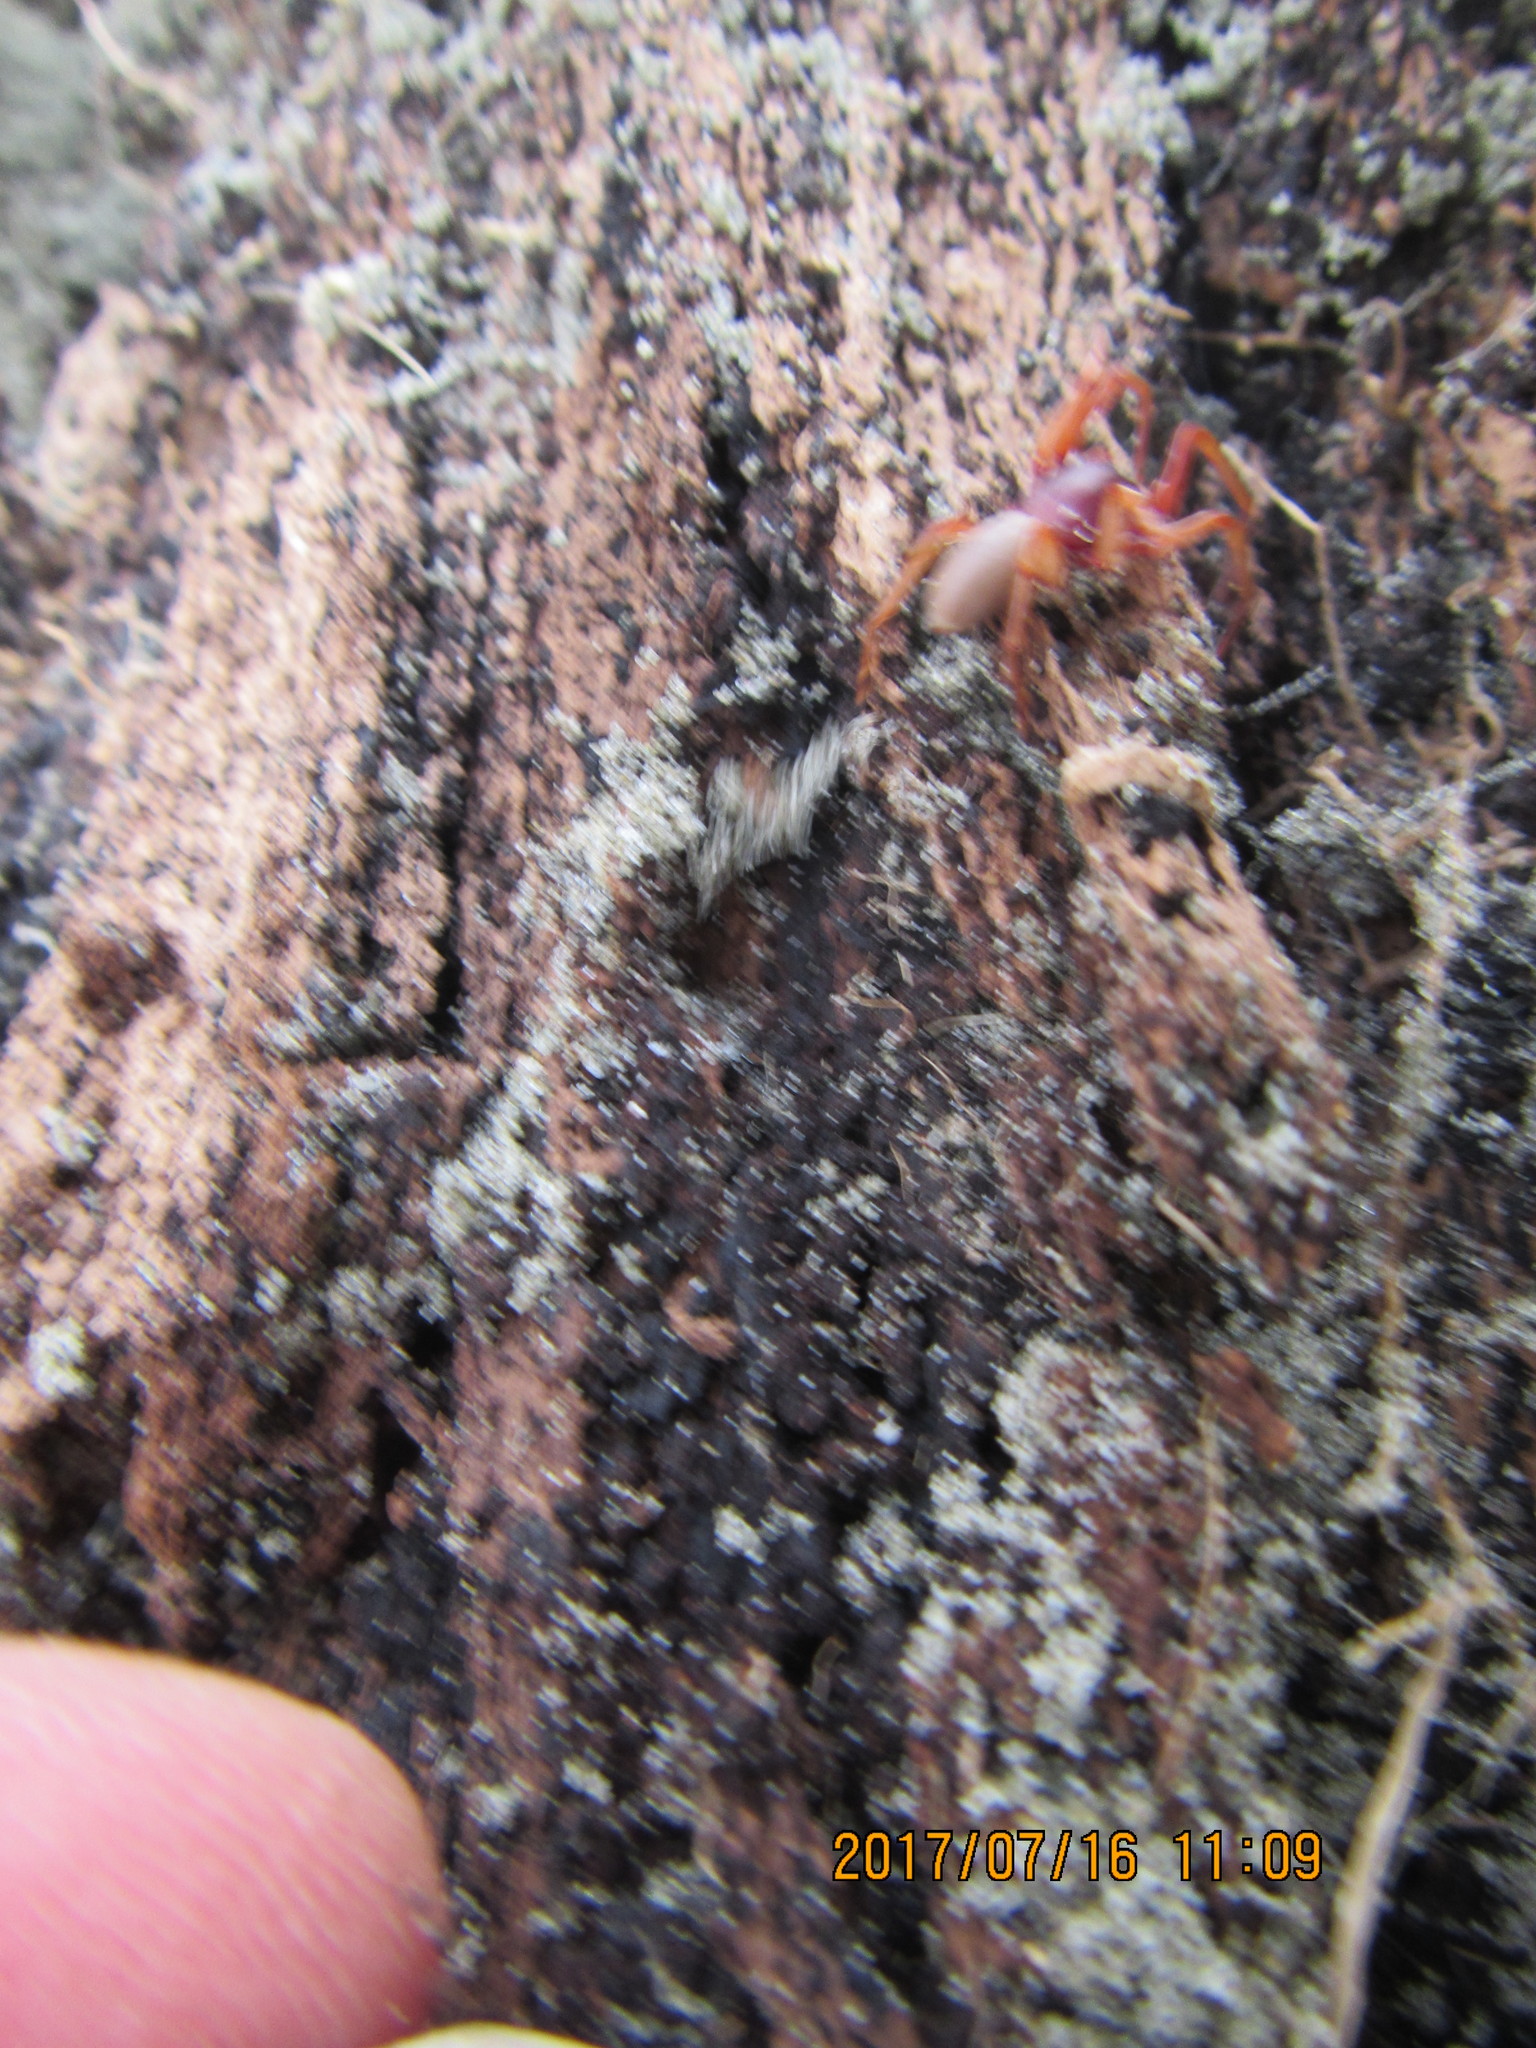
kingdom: Animalia
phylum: Arthropoda
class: Arachnida
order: Araneae
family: Dysderidae
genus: Dysdera
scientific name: Dysdera crocata
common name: Woodlouse spider
